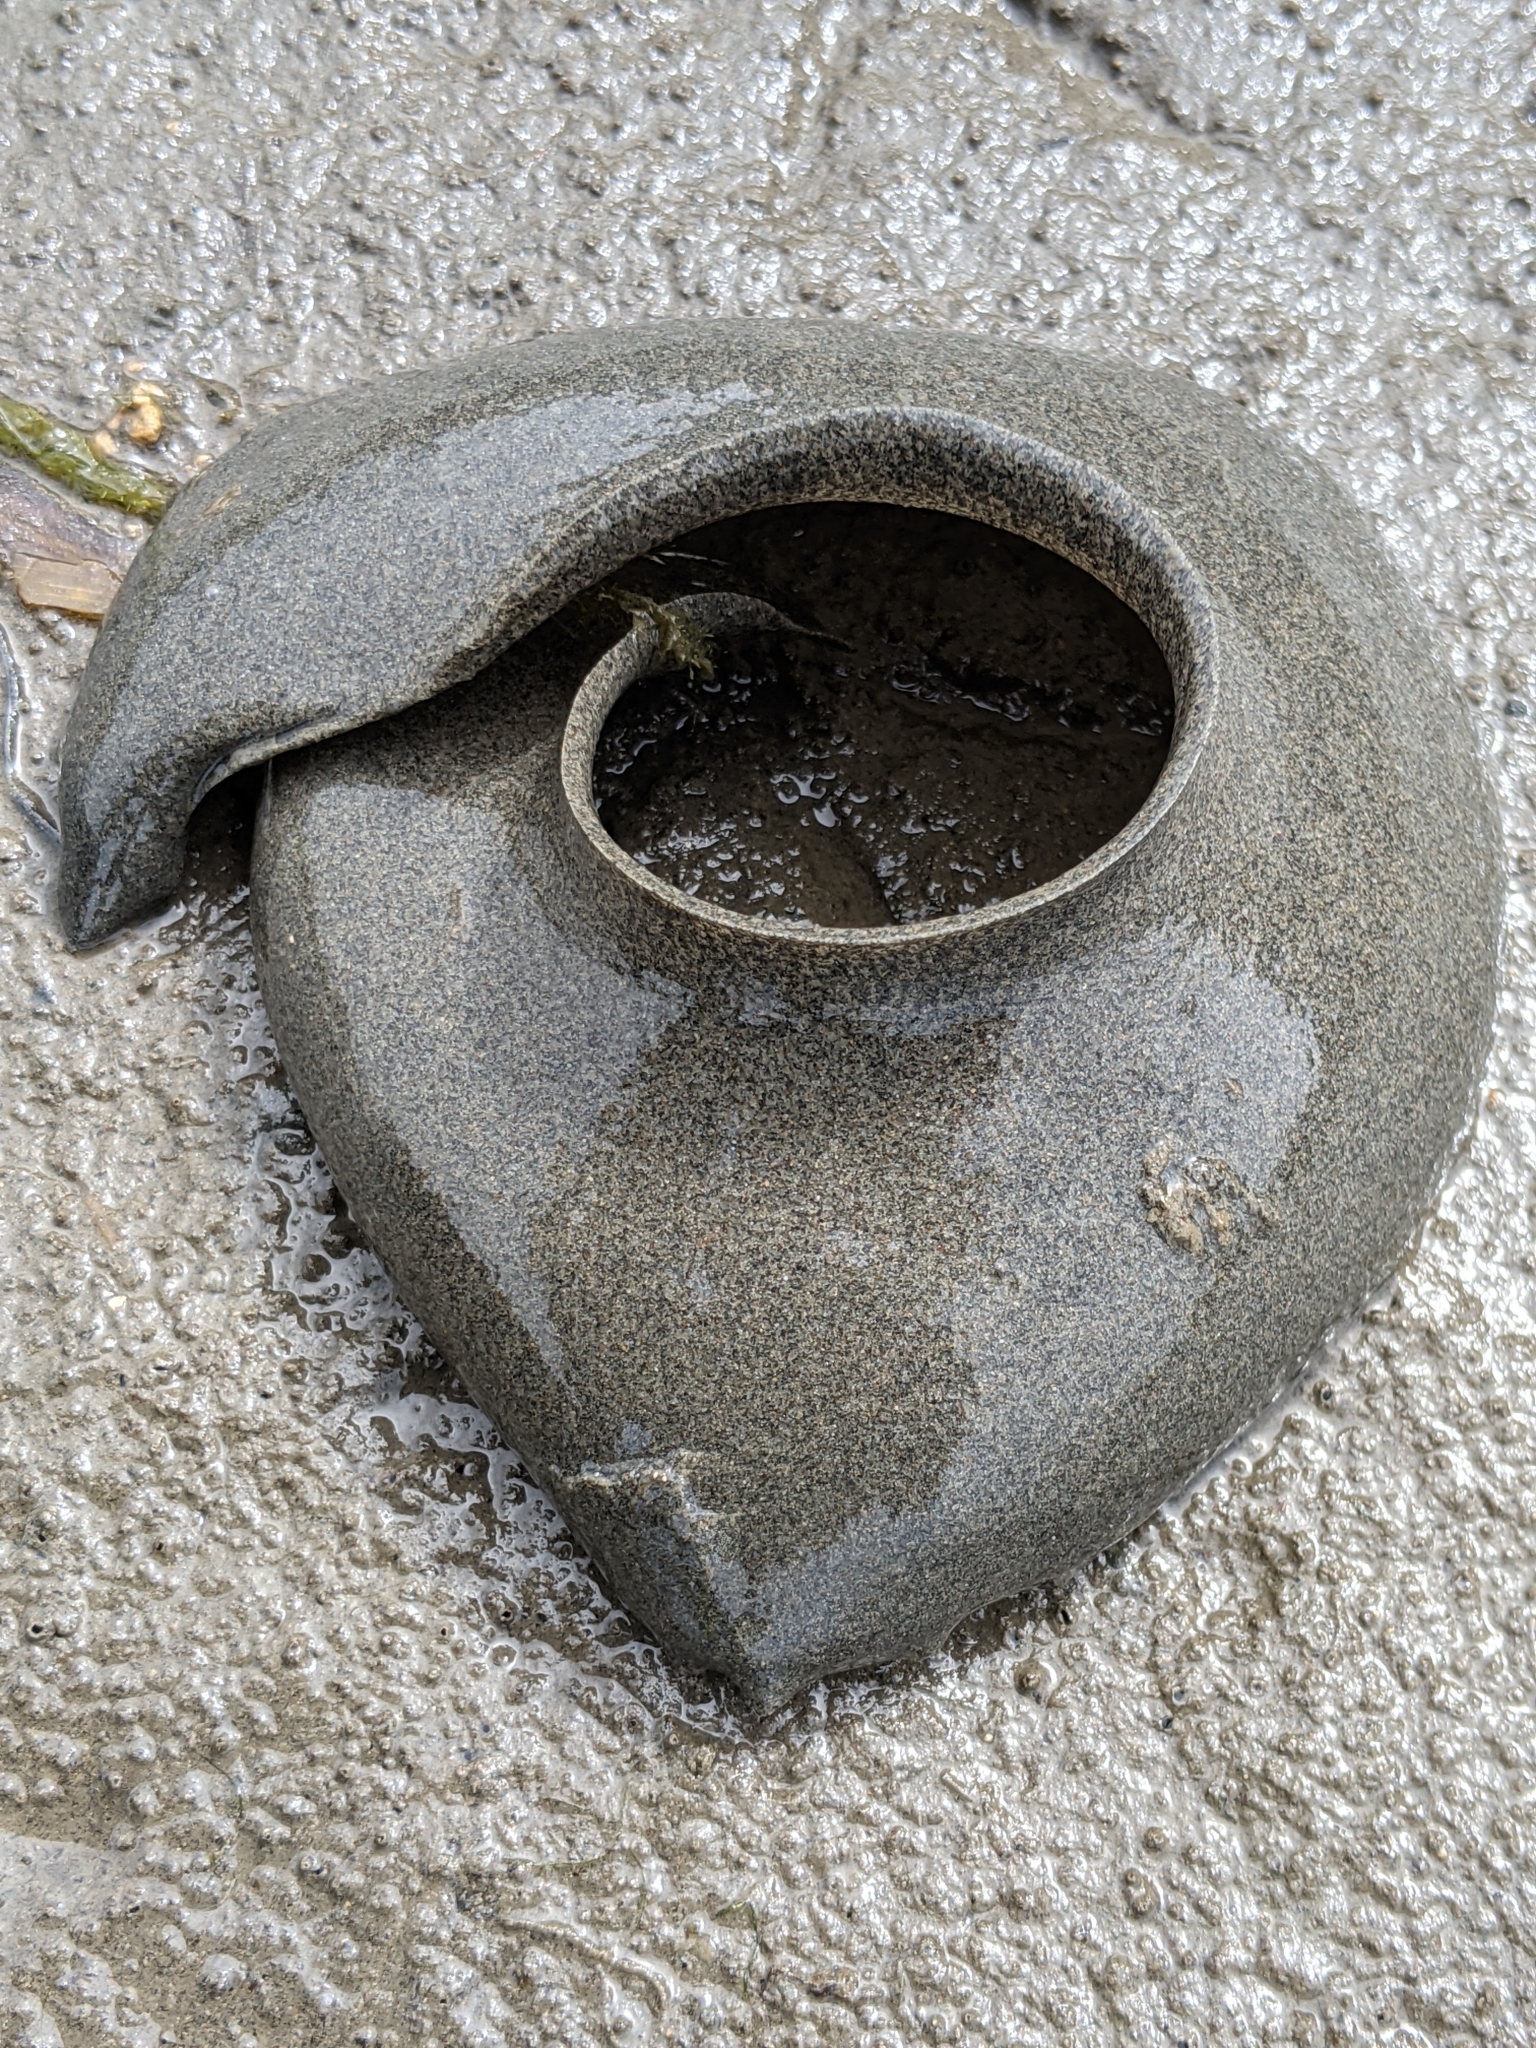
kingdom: Animalia
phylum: Mollusca
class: Gastropoda
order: Littorinimorpha
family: Naticidae
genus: Neverita
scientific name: Neverita lewisii
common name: Lewis' moonsnail
